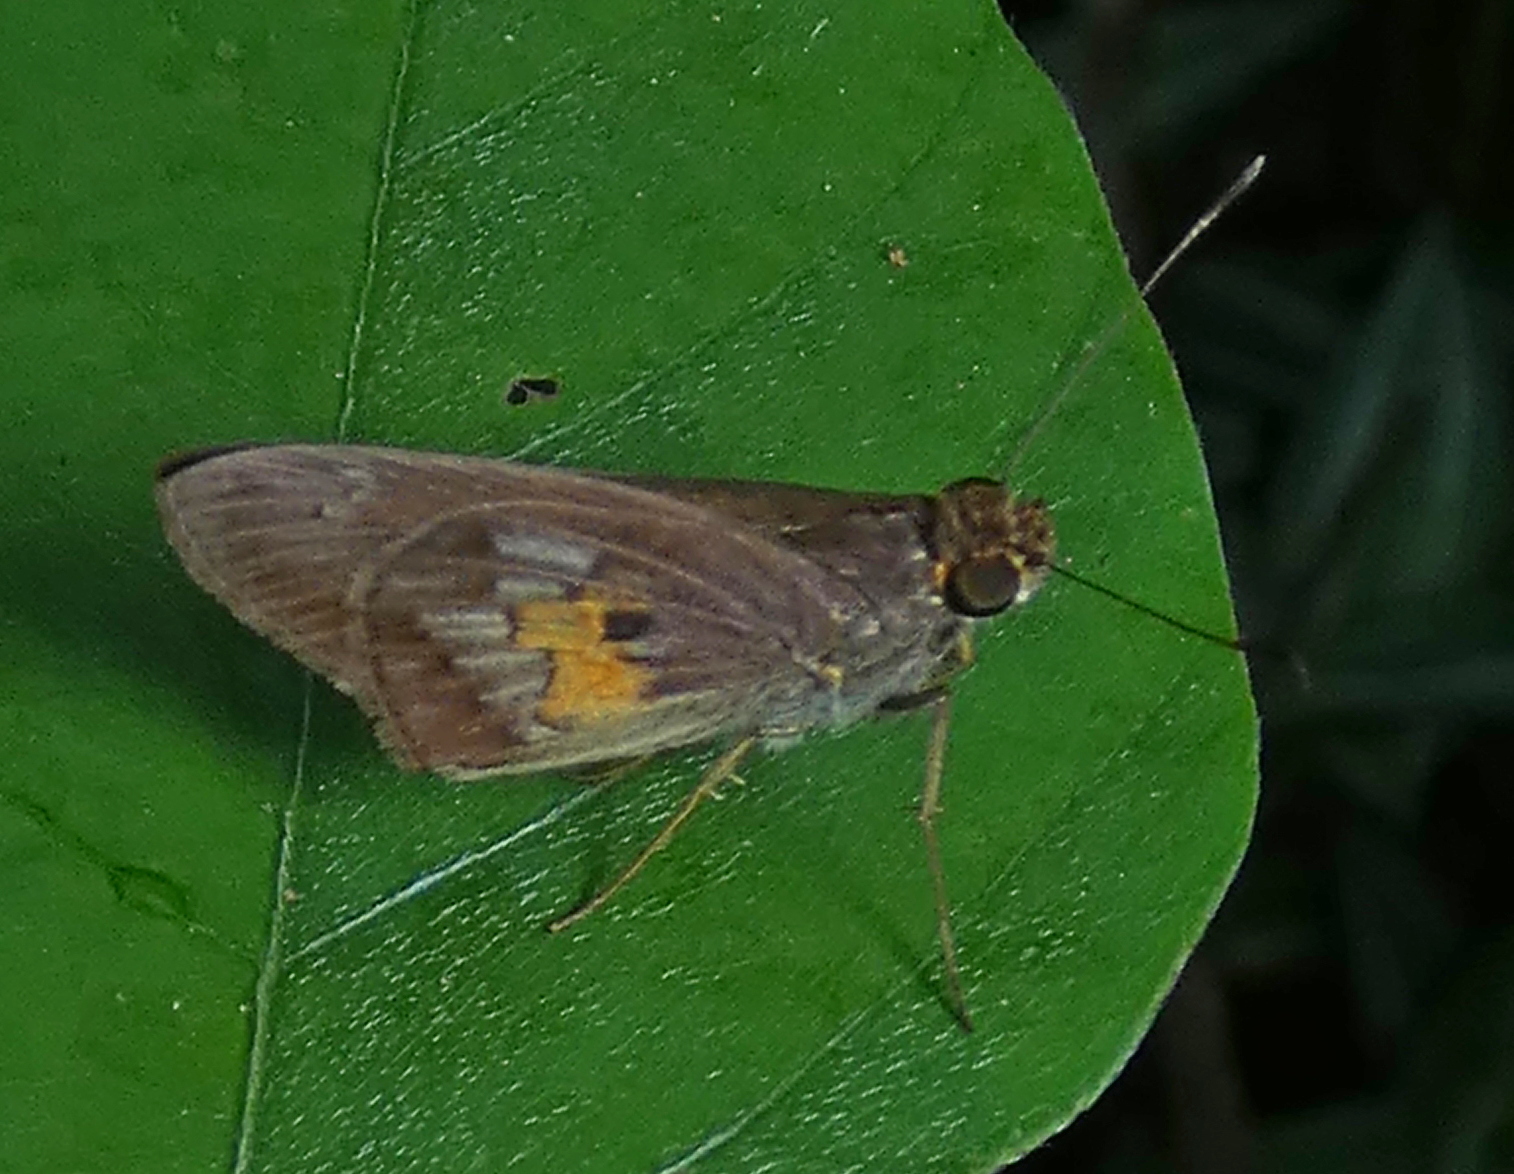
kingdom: Animalia
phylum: Arthropoda
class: Insecta
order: Lepidoptera
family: Hesperiidae
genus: Phanis
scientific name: Phanis aletes
